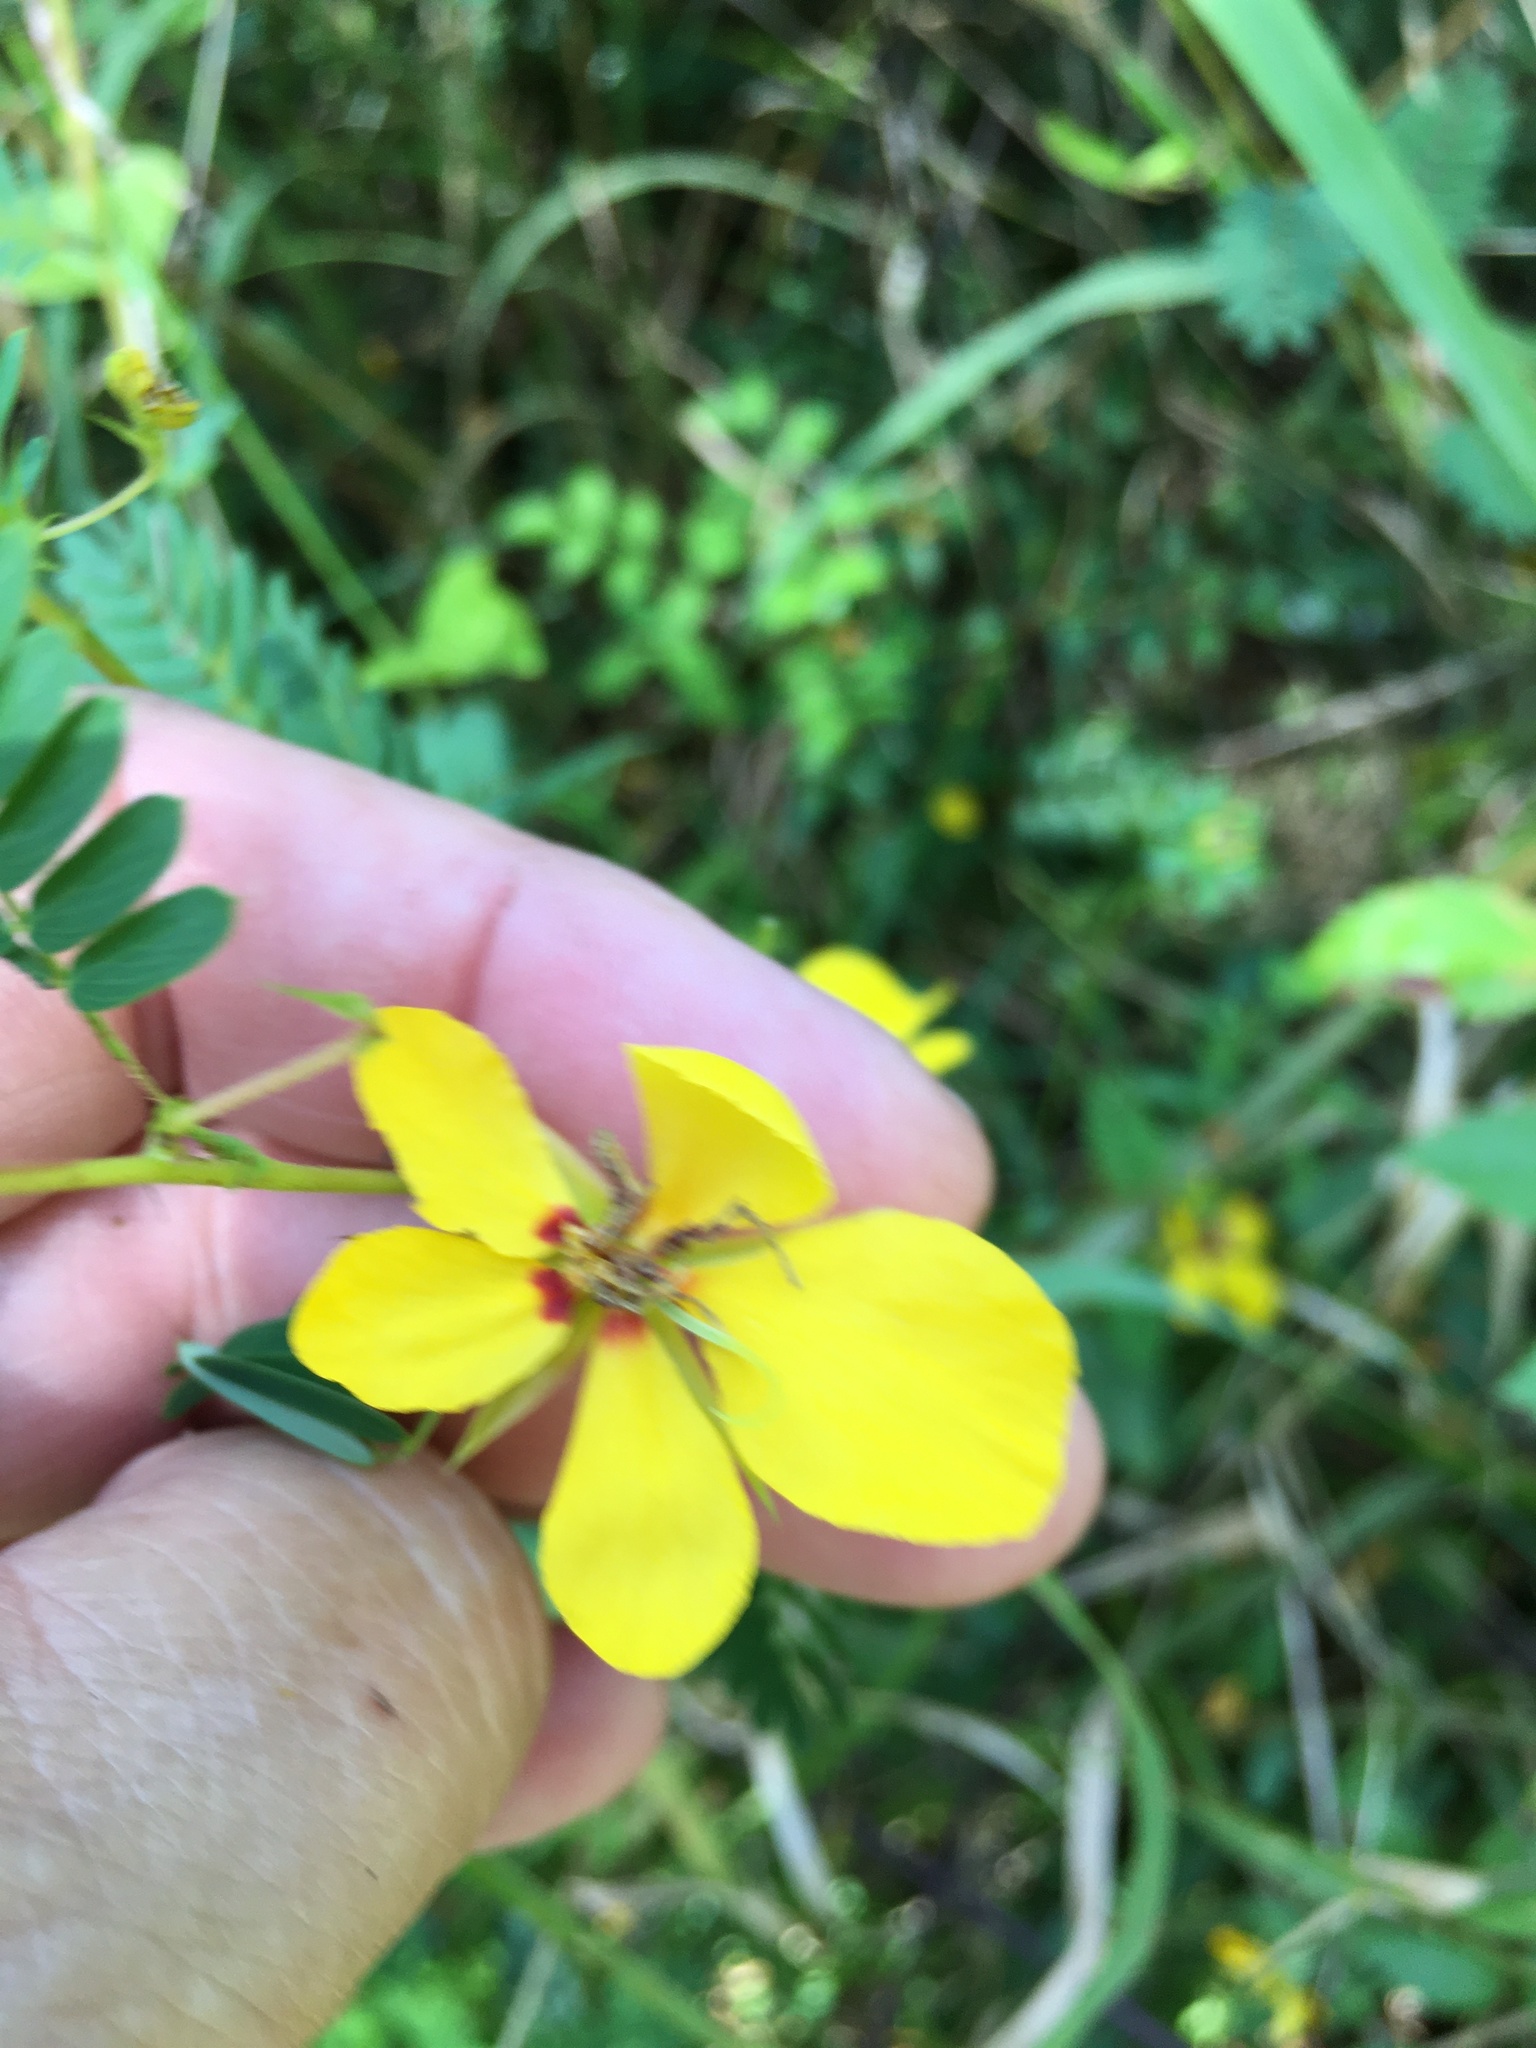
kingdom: Plantae
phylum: Tracheophyta
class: Magnoliopsida
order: Fabales
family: Fabaceae
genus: Chamaecrista
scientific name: Chamaecrista fasciculata
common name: Golden cassia
